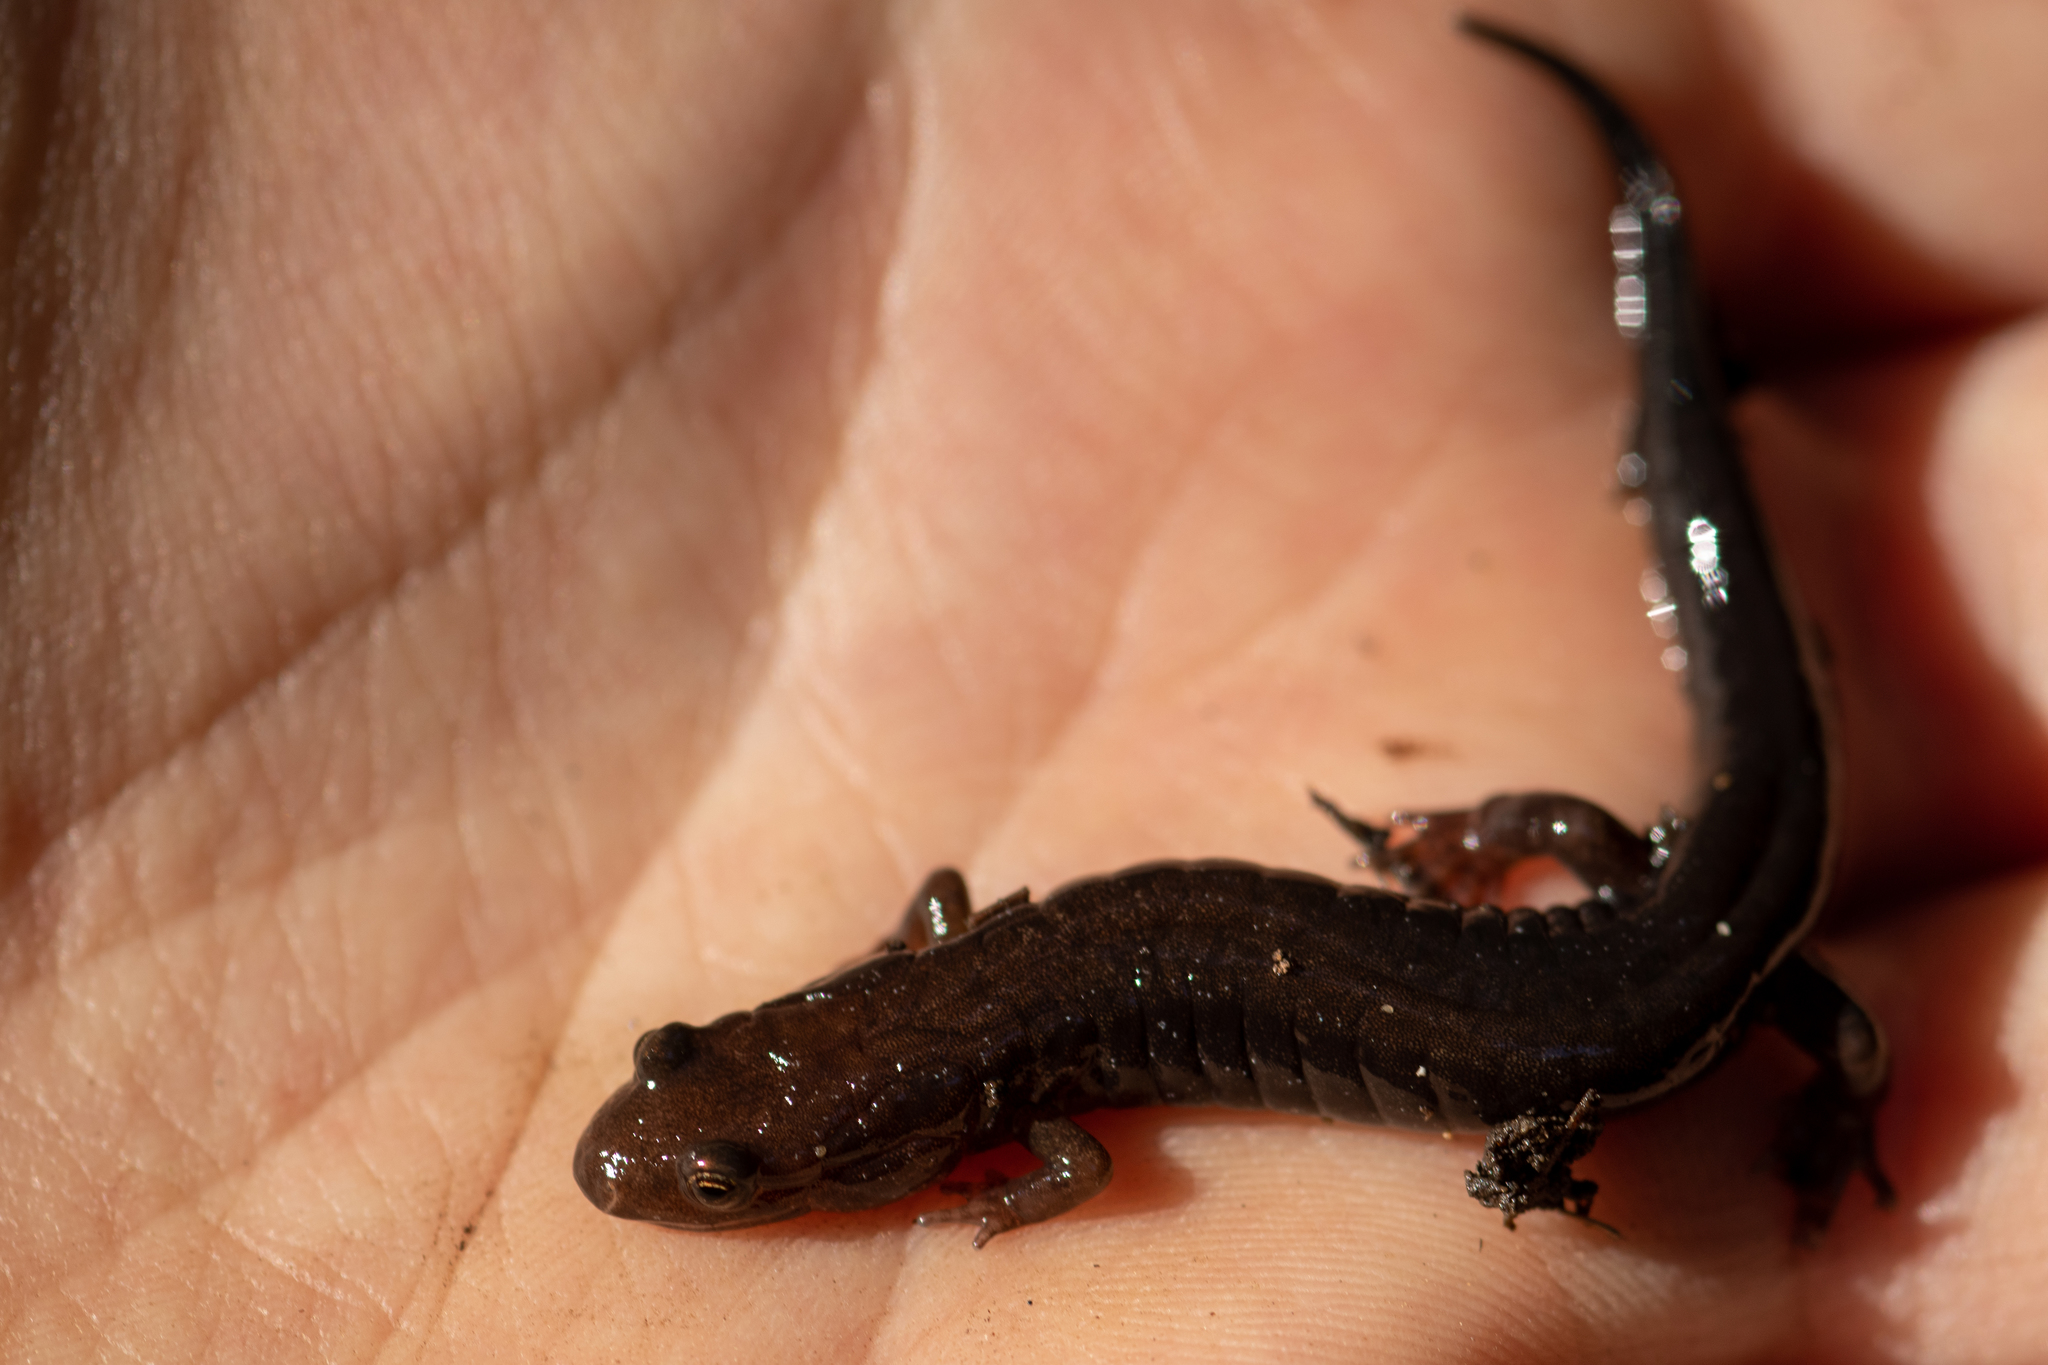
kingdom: Animalia
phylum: Chordata
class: Amphibia
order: Caudata
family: Plethodontidae
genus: Desmognathus
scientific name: Desmognathus ochrophaeus
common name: Allegheny mountain dusky salamander
